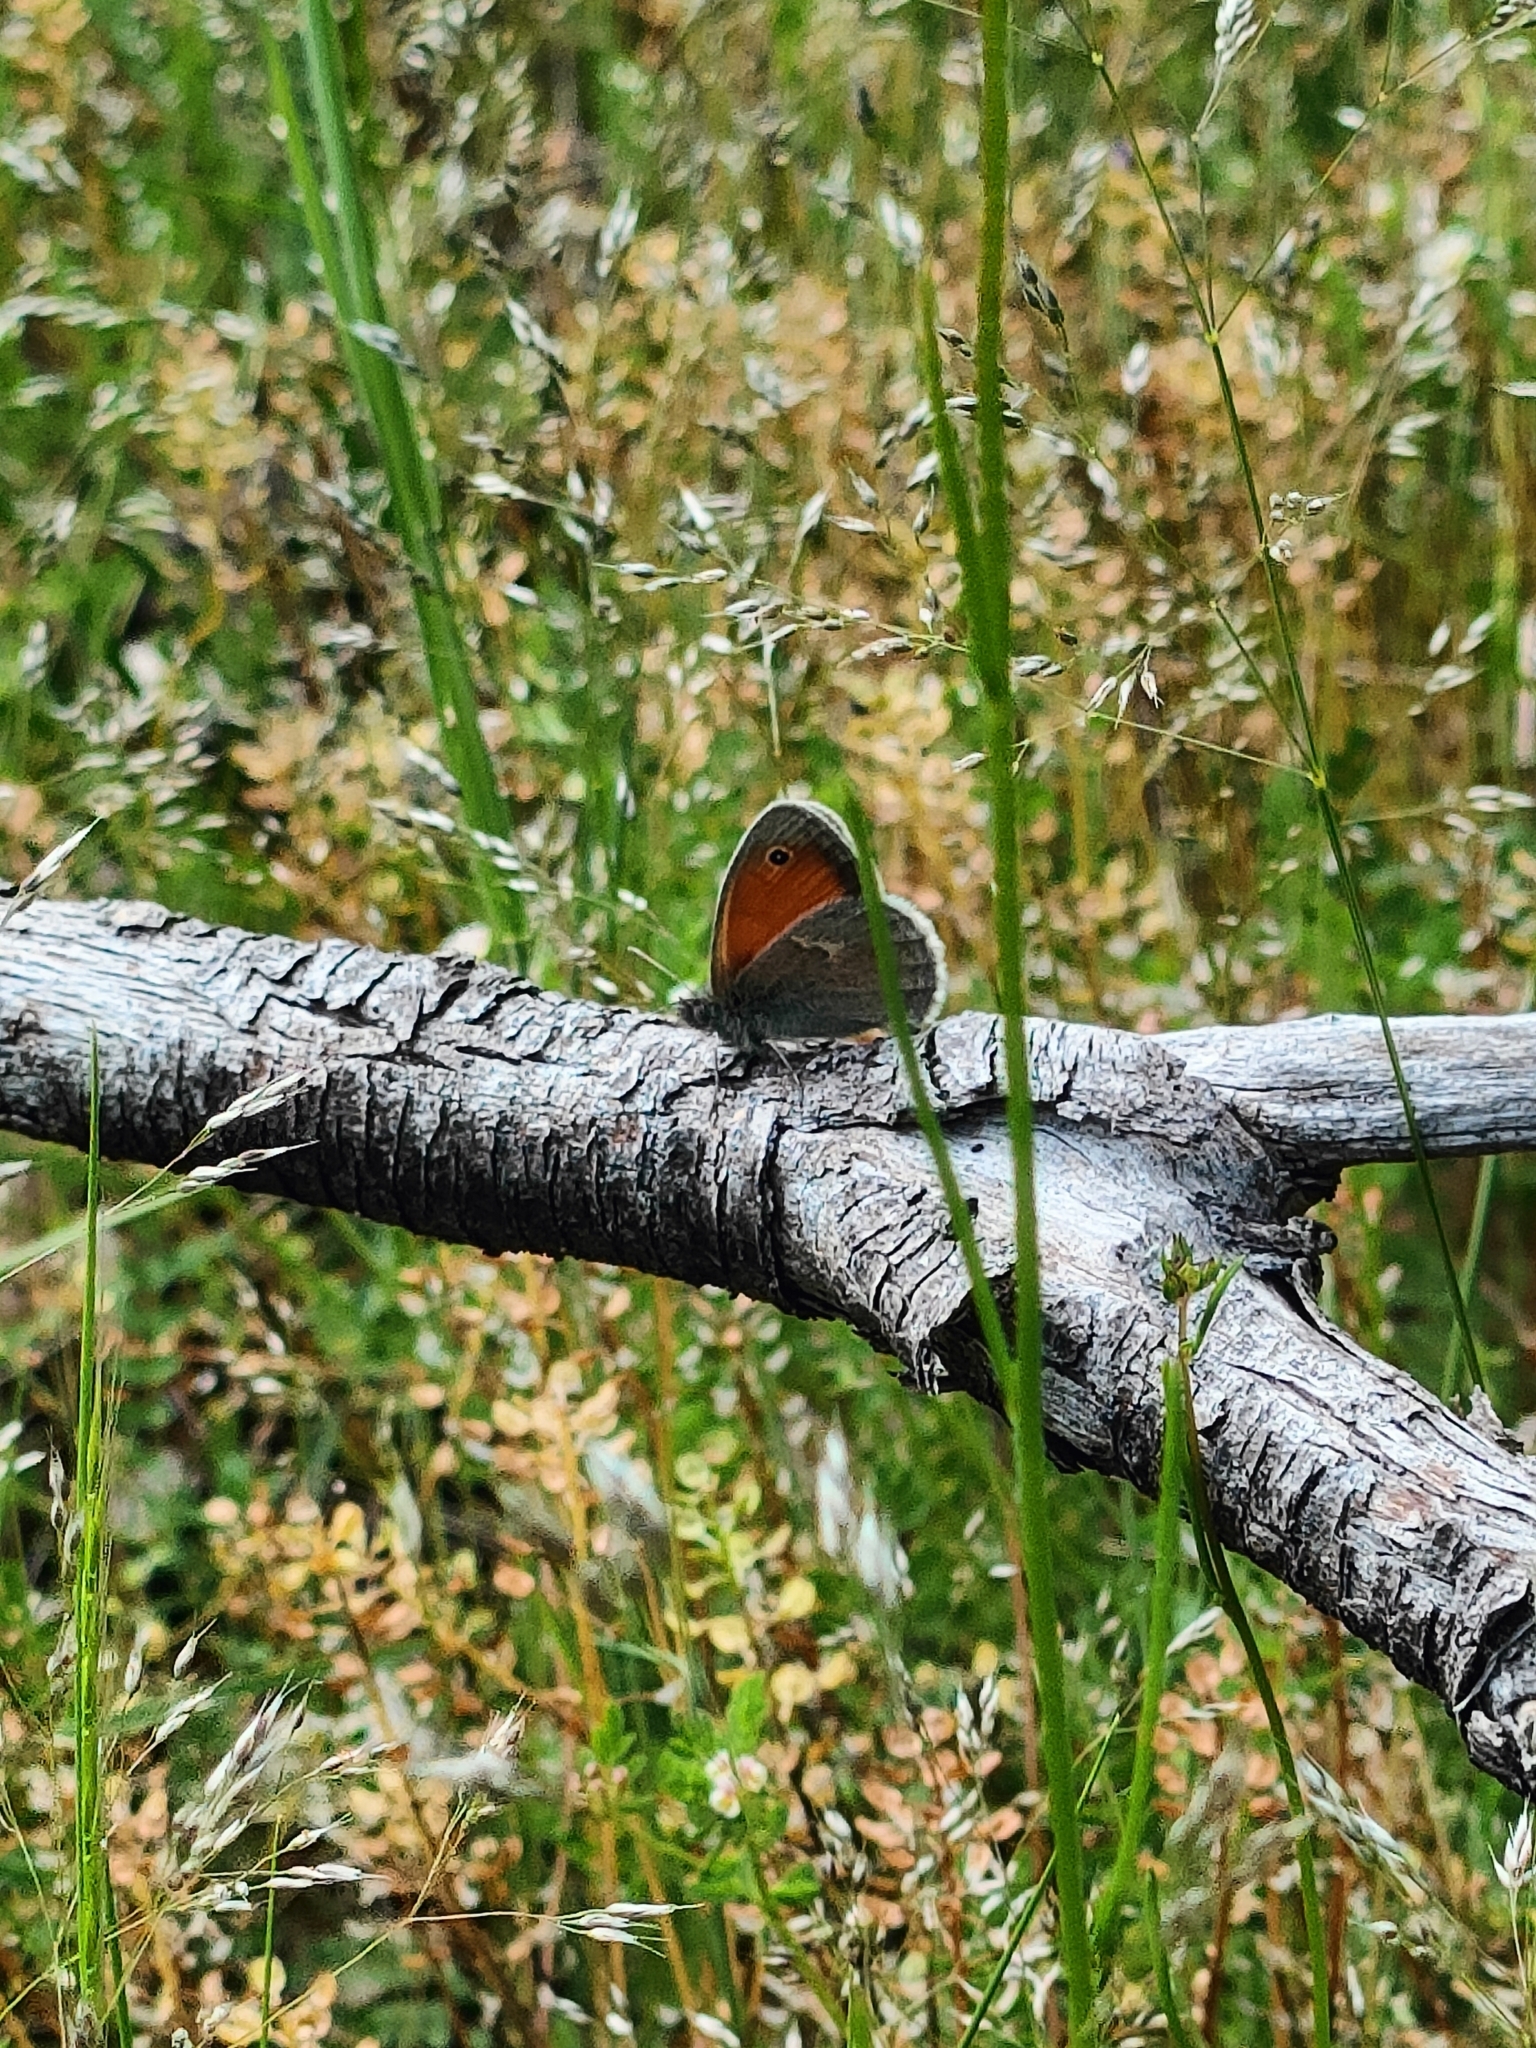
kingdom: Animalia
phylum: Arthropoda
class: Insecta
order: Lepidoptera
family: Nymphalidae
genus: Coenonympha
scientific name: Coenonympha pamphilus
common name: Small heath
